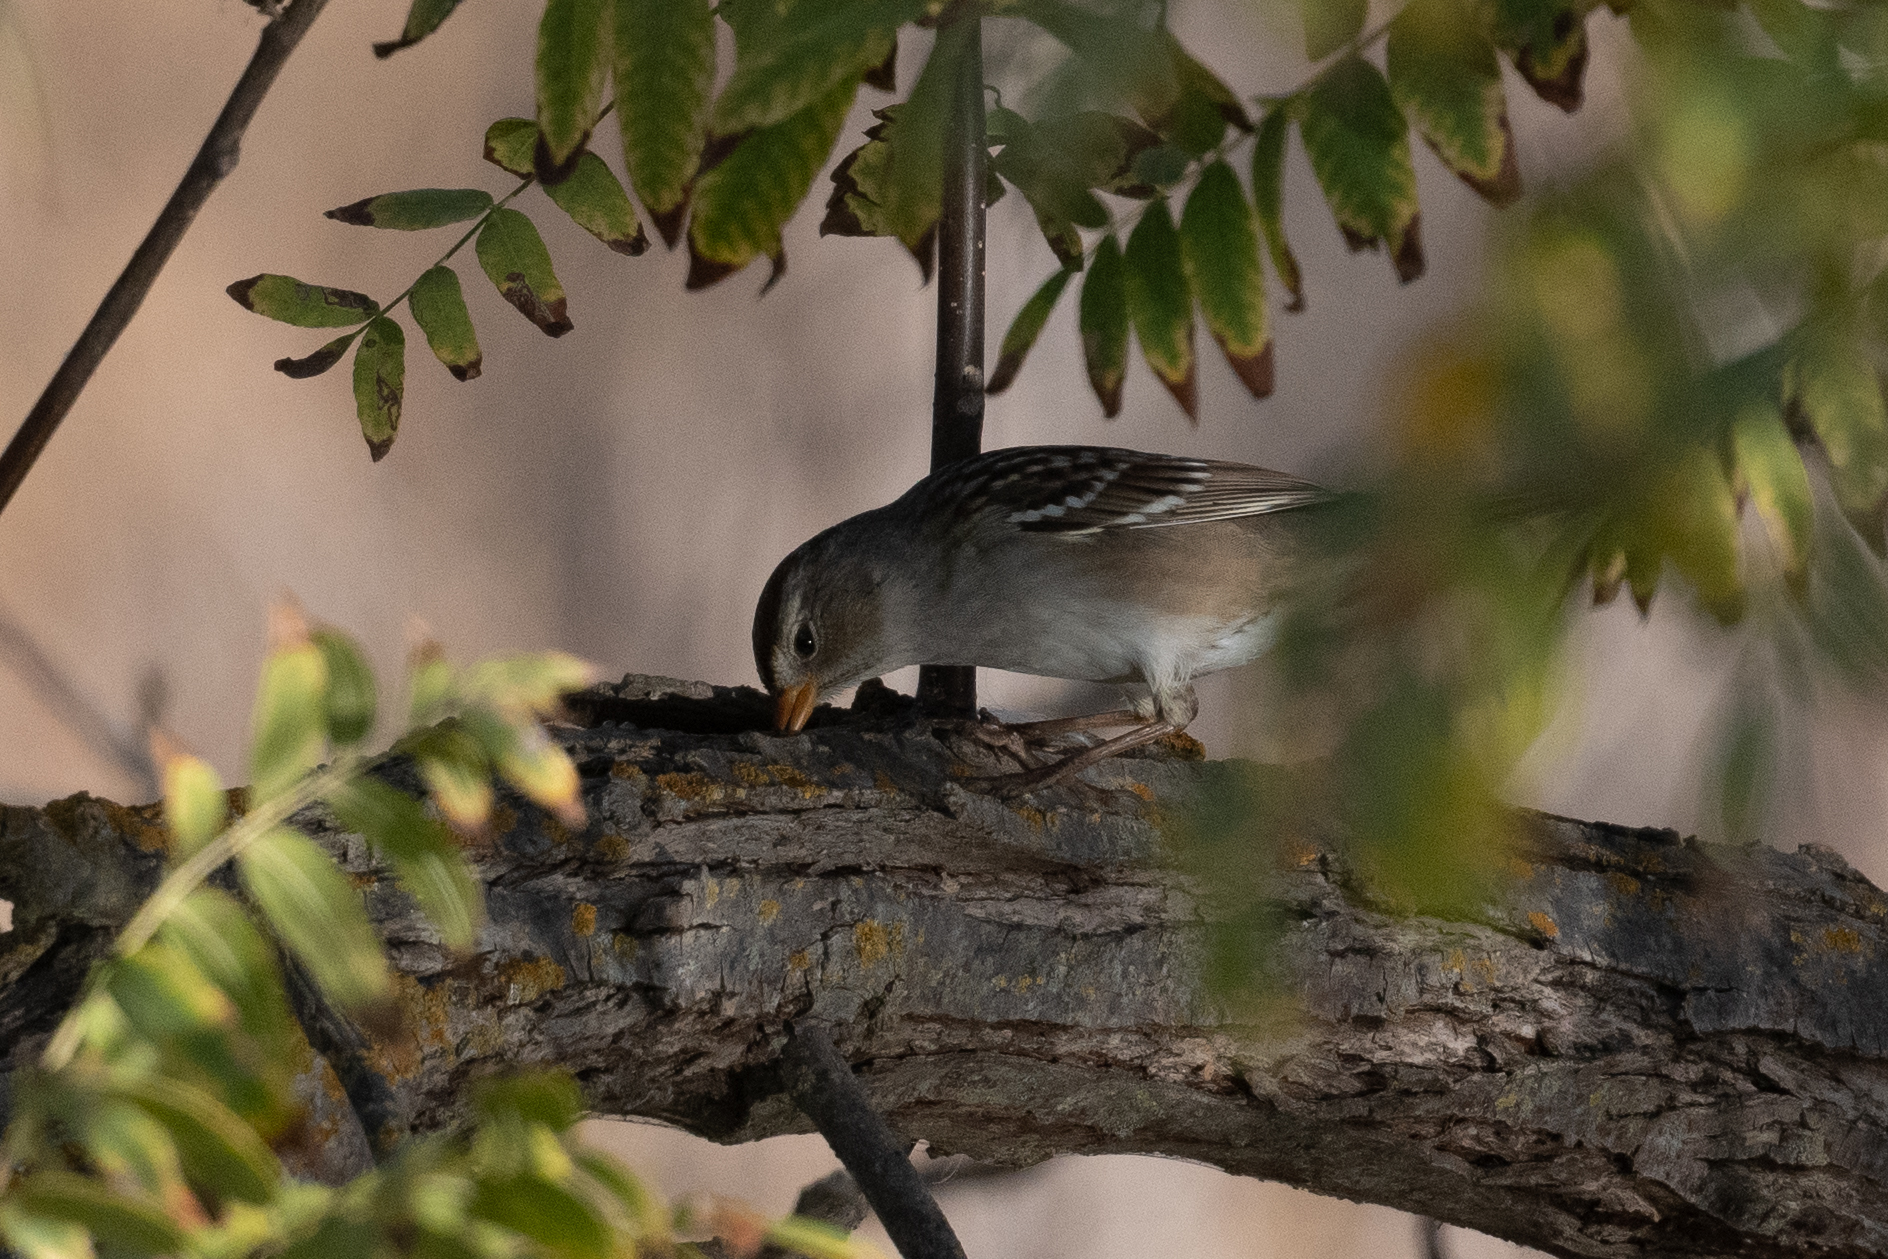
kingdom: Animalia
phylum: Chordata
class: Aves
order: Passeriformes
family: Passerellidae
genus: Zonotrichia
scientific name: Zonotrichia leucophrys
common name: White-crowned sparrow
